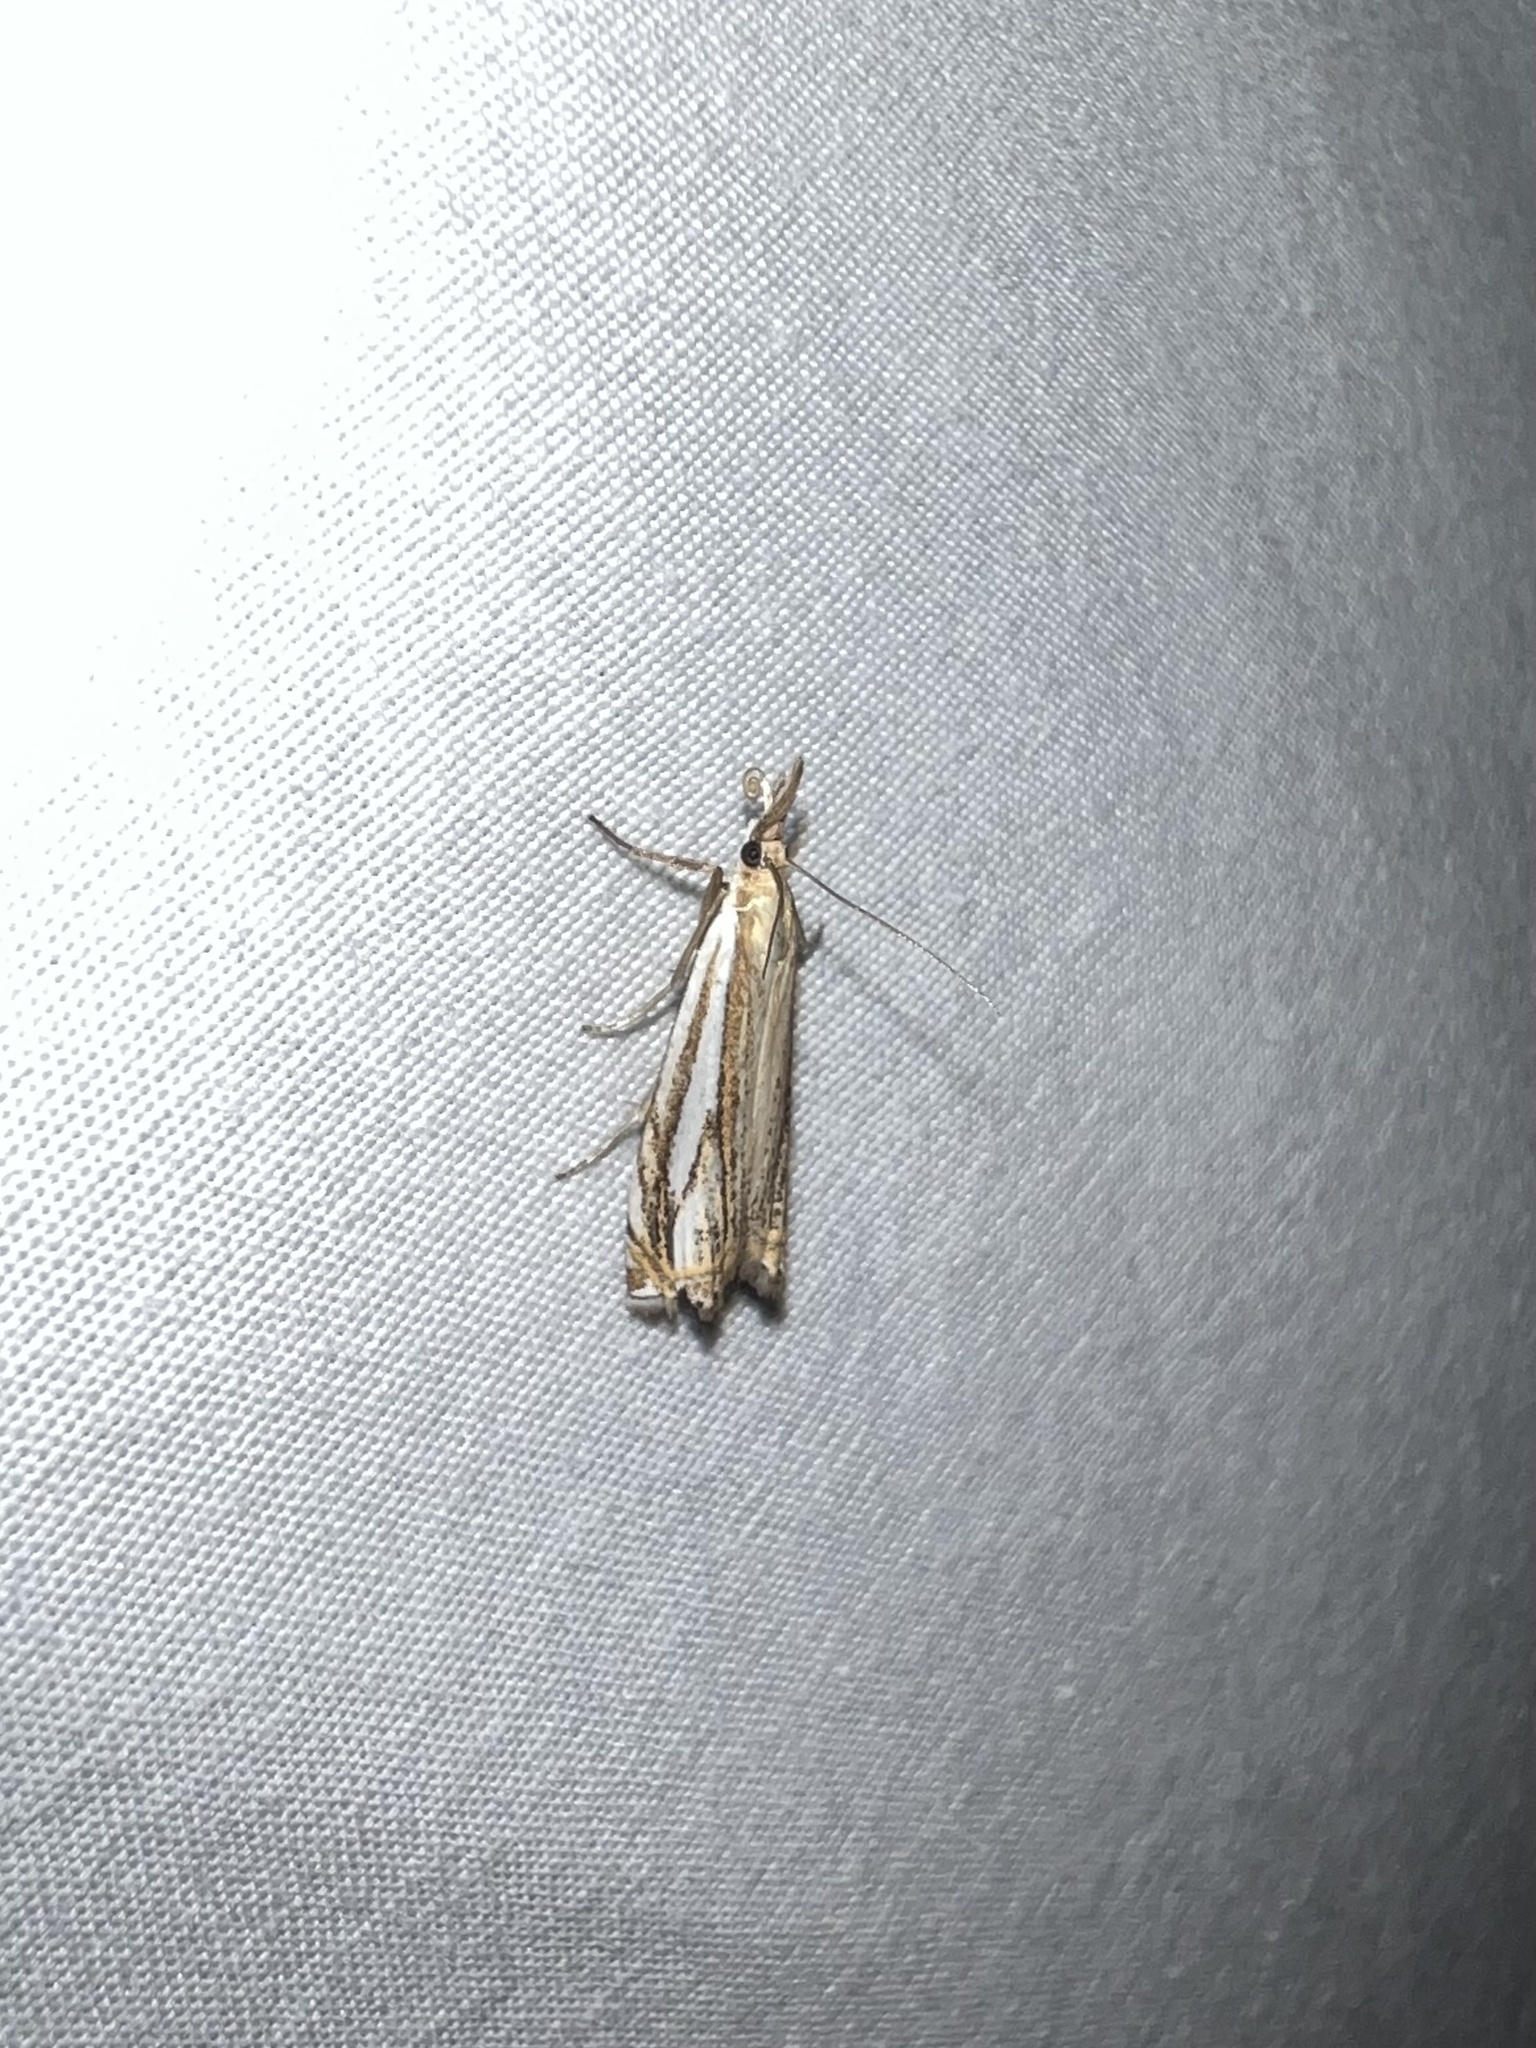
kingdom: Animalia
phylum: Arthropoda
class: Insecta
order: Lepidoptera
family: Crambidae
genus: Crambus
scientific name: Crambus saltuellus
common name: Pasture grass-veneer
